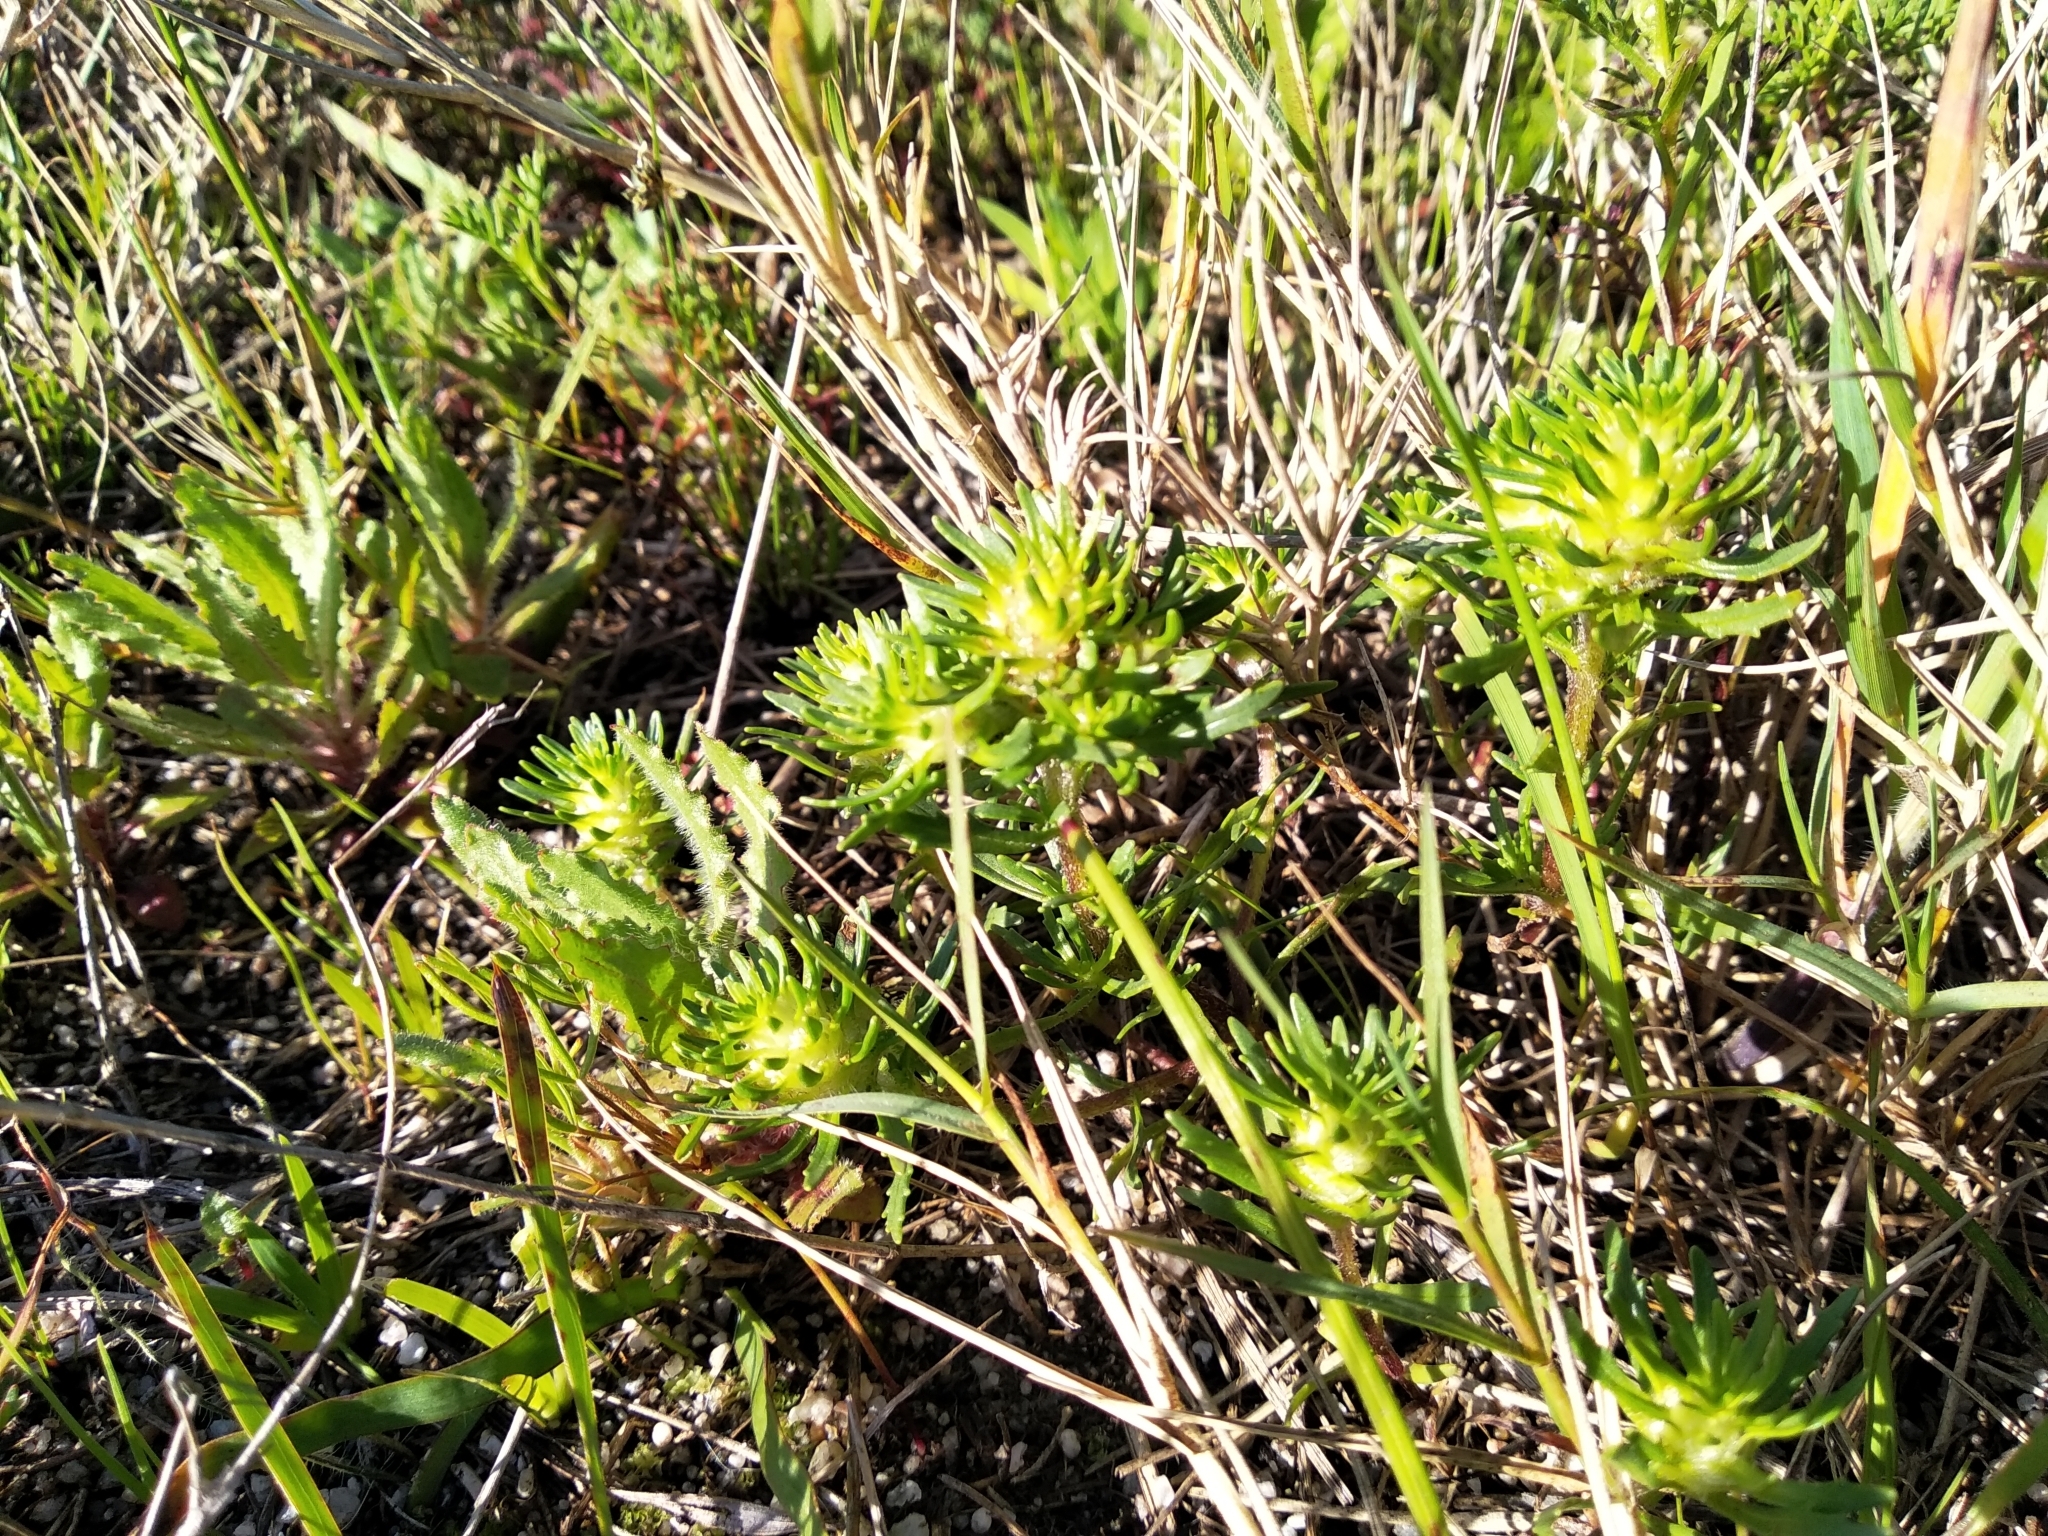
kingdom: Plantae
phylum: Tracheophyta
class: Magnoliopsida
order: Lamiales
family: Scrophulariaceae
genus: Dischisma
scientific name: Dischisma capitatum
